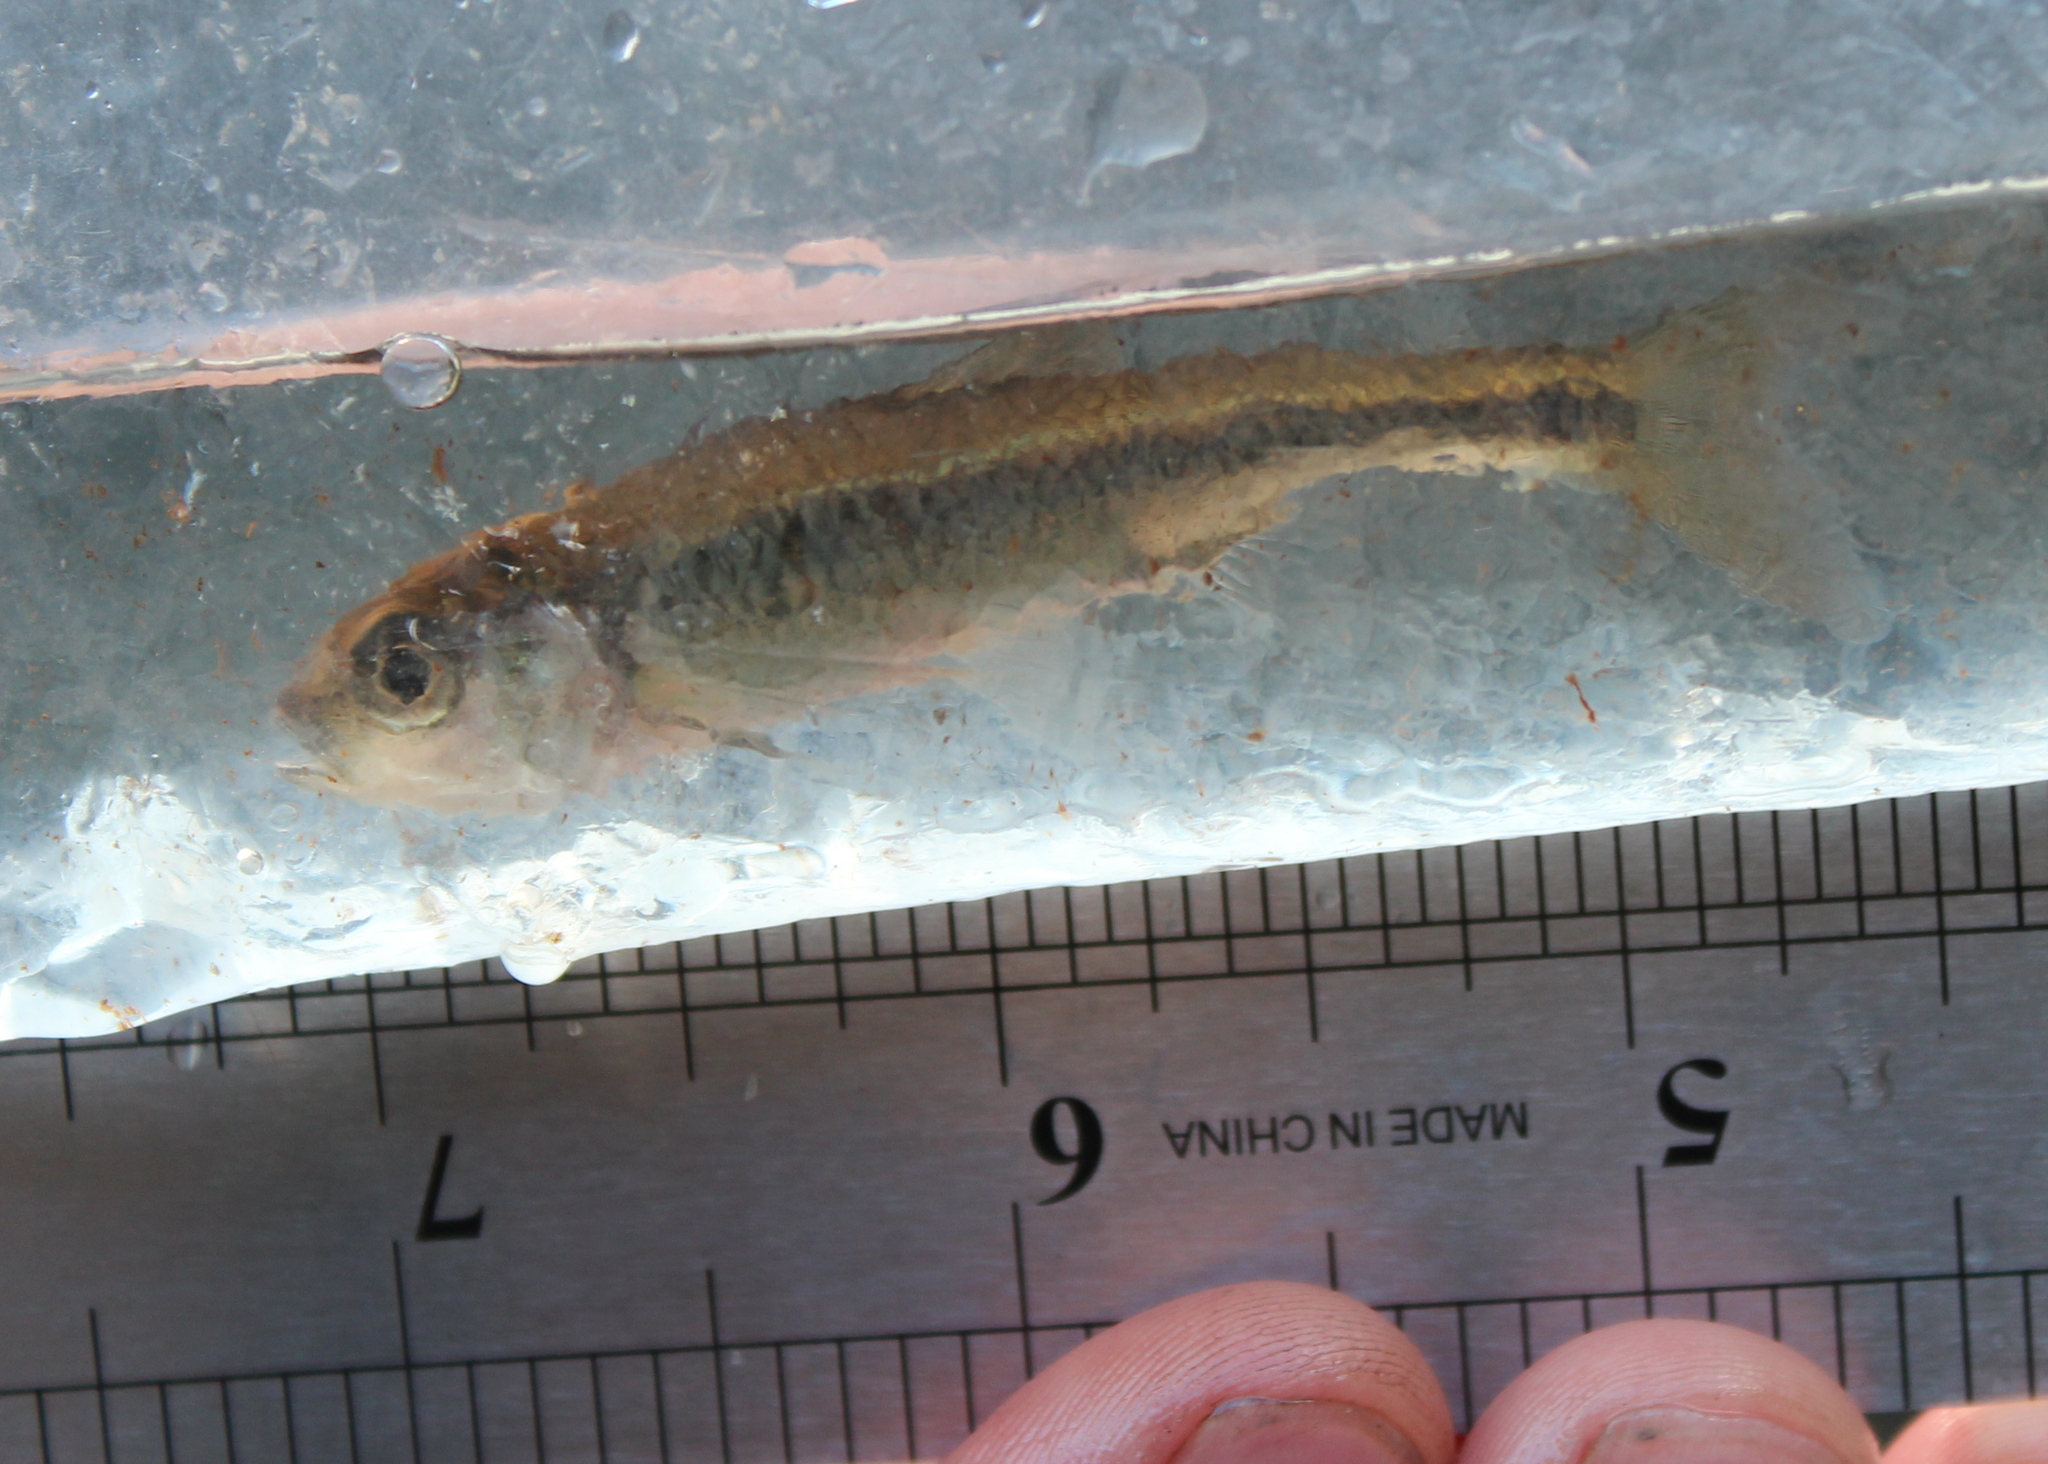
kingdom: Animalia
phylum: Chordata
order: Cypriniformes
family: Cyprinidae
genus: Luxilus
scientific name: Luxilus cornutus
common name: Common shiner
